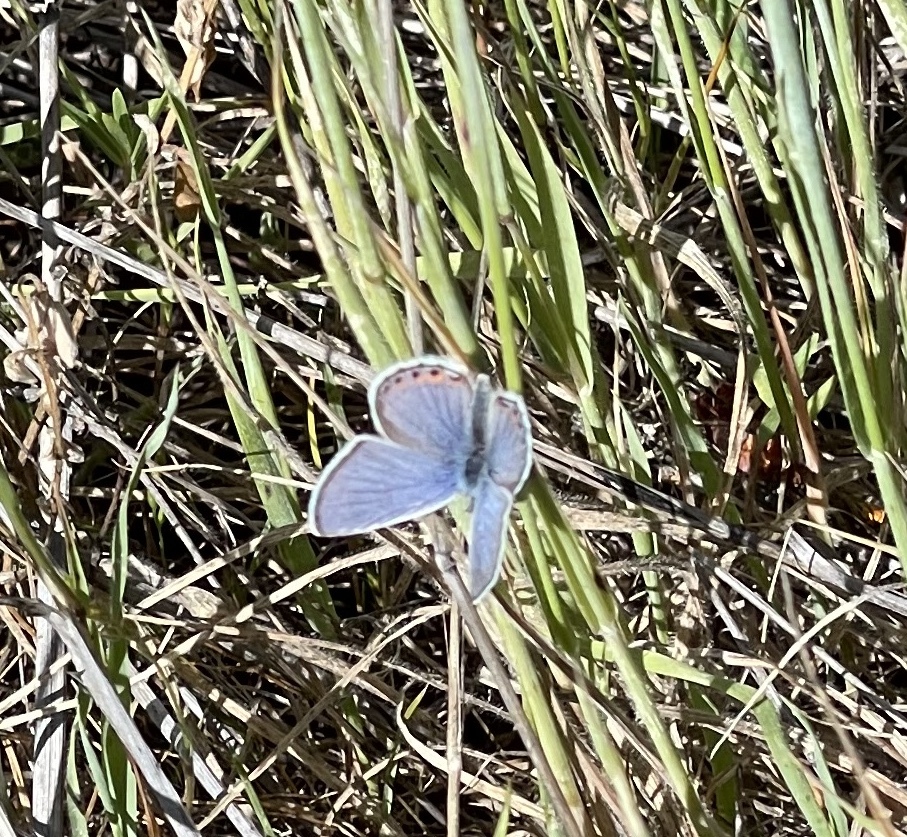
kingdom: Animalia
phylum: Arthropoda
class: Insecta
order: Lepidoptera
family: Lycaenidae
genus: Icaricia
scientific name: Icaricia acmon
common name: Acmon blue
